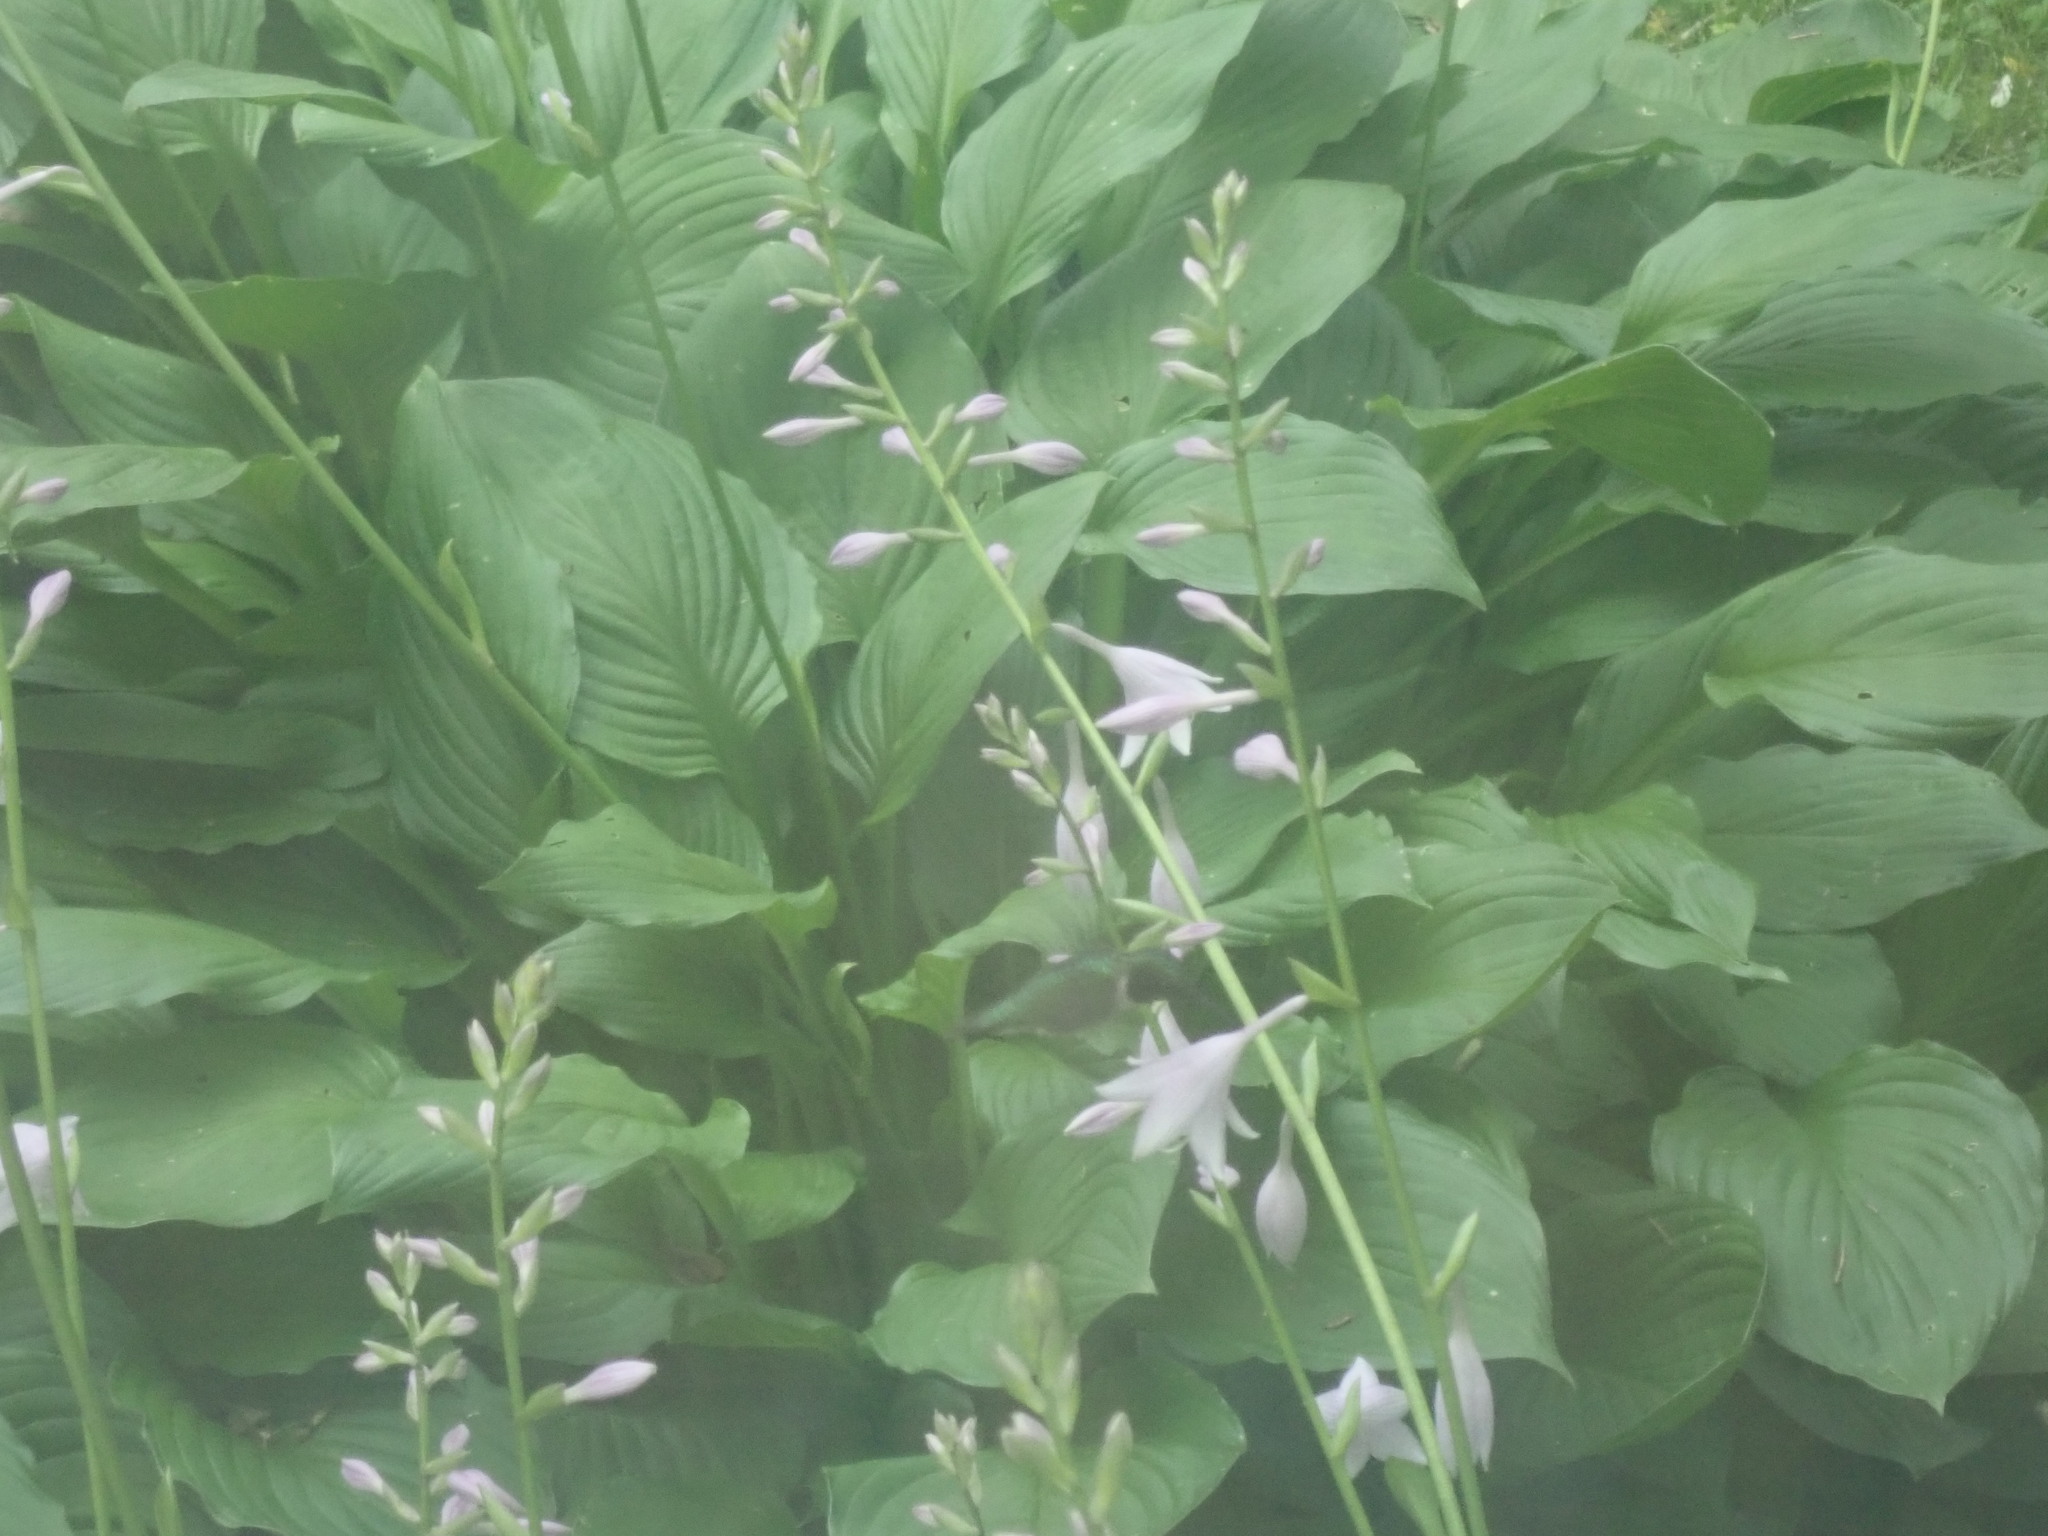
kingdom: Animalia
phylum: Chordata
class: Aves
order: Apodiformes
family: Trochilidae
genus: Archilochus
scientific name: Archilochus colubris
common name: Ruby-throated hummingbird
